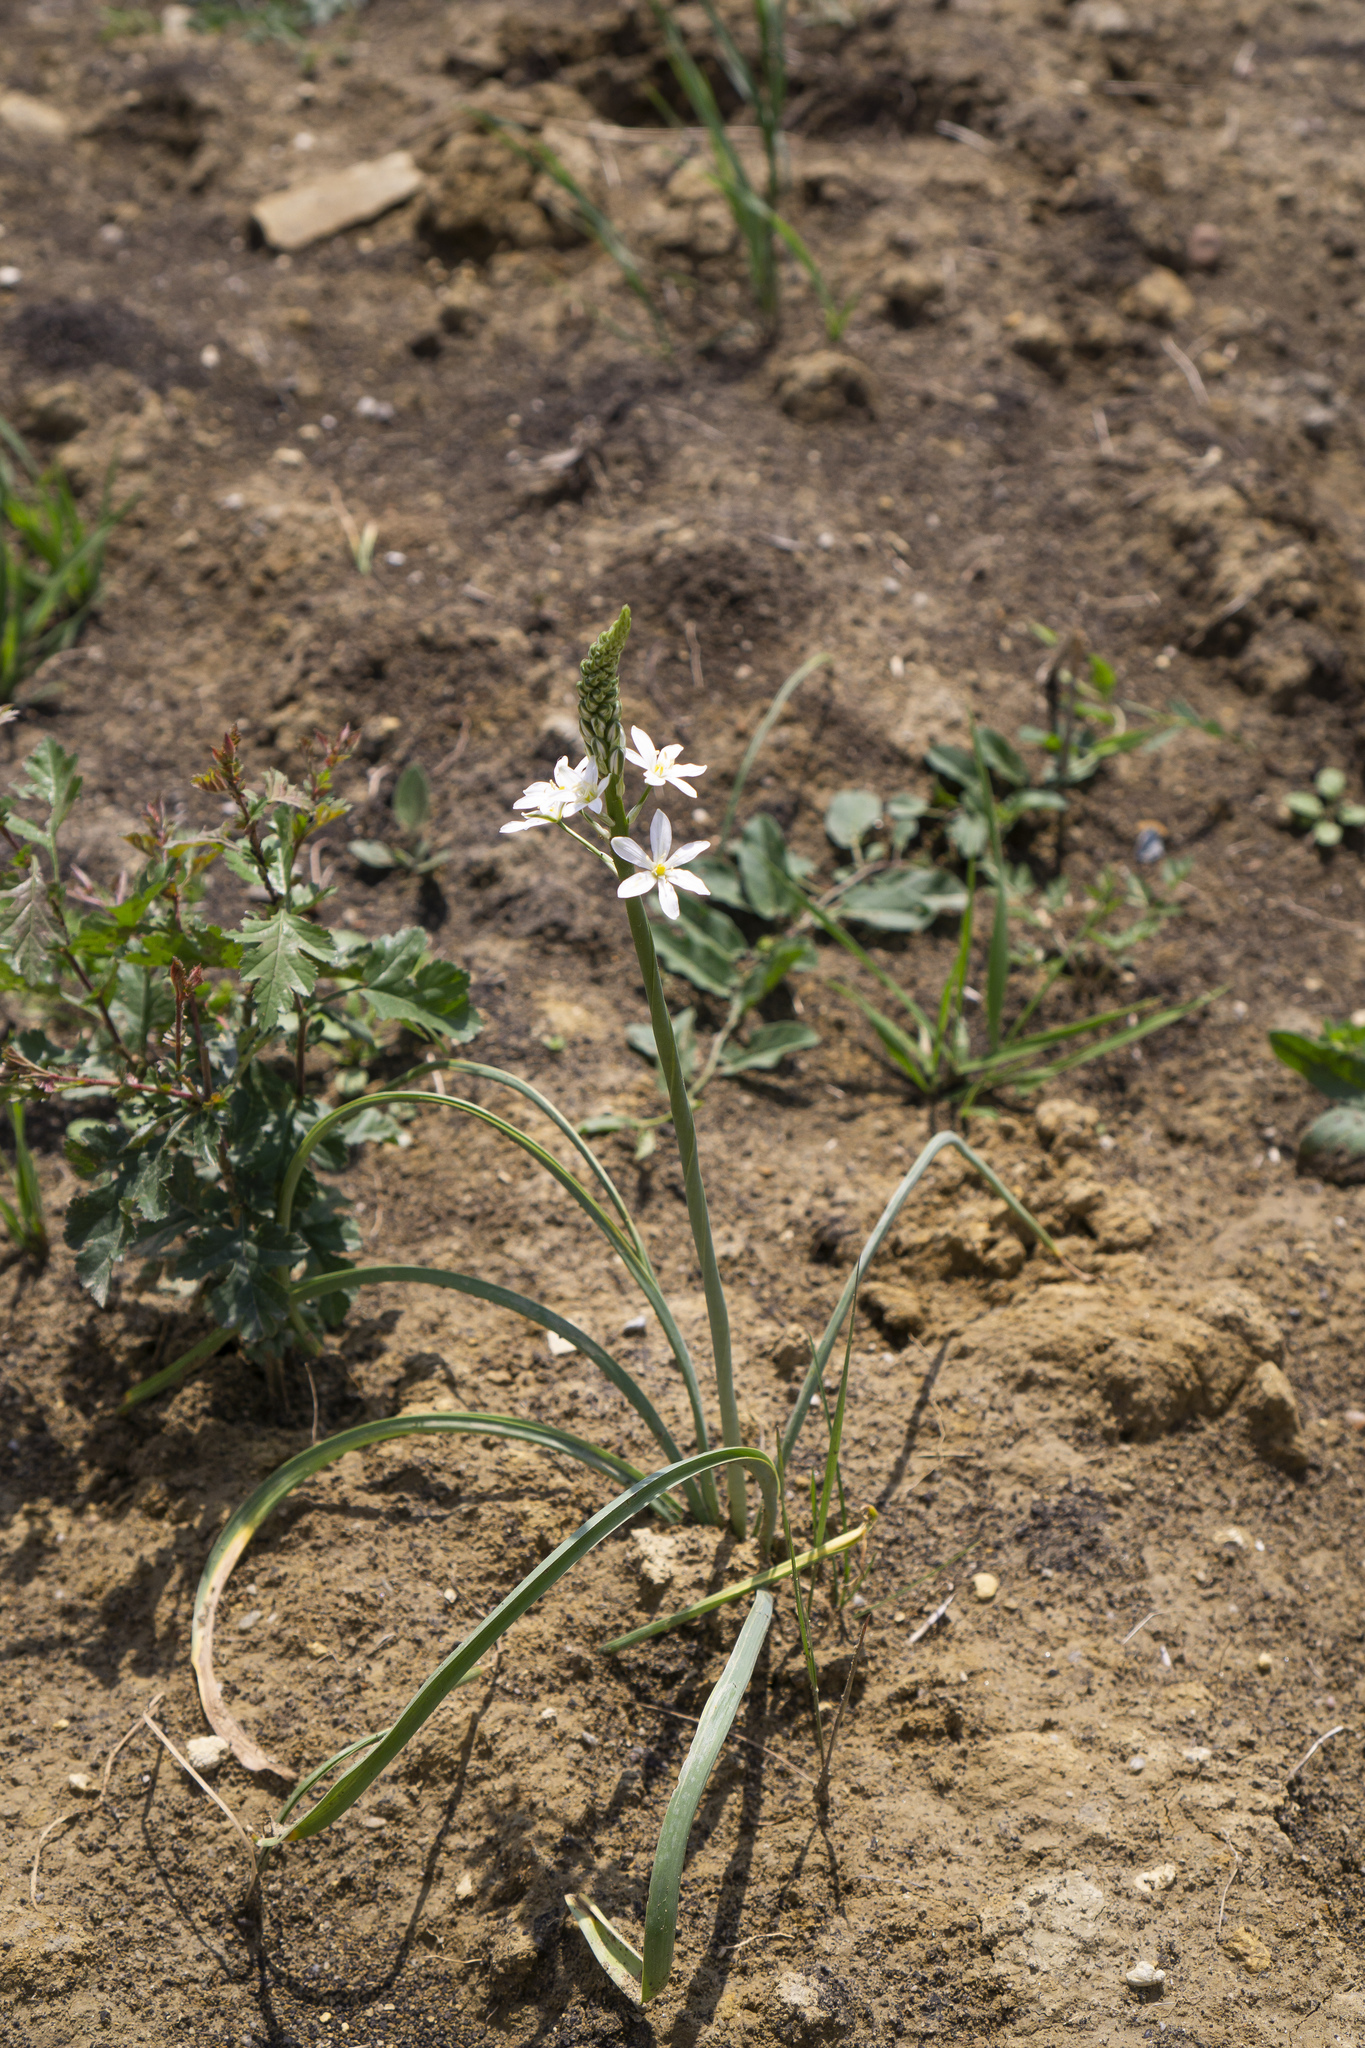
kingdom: Plantae
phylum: Tracheophyta
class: Liliopsida
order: Asparagales
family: Asparagaceae
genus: Ornithogalum
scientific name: Ornithogalum pyramidale
